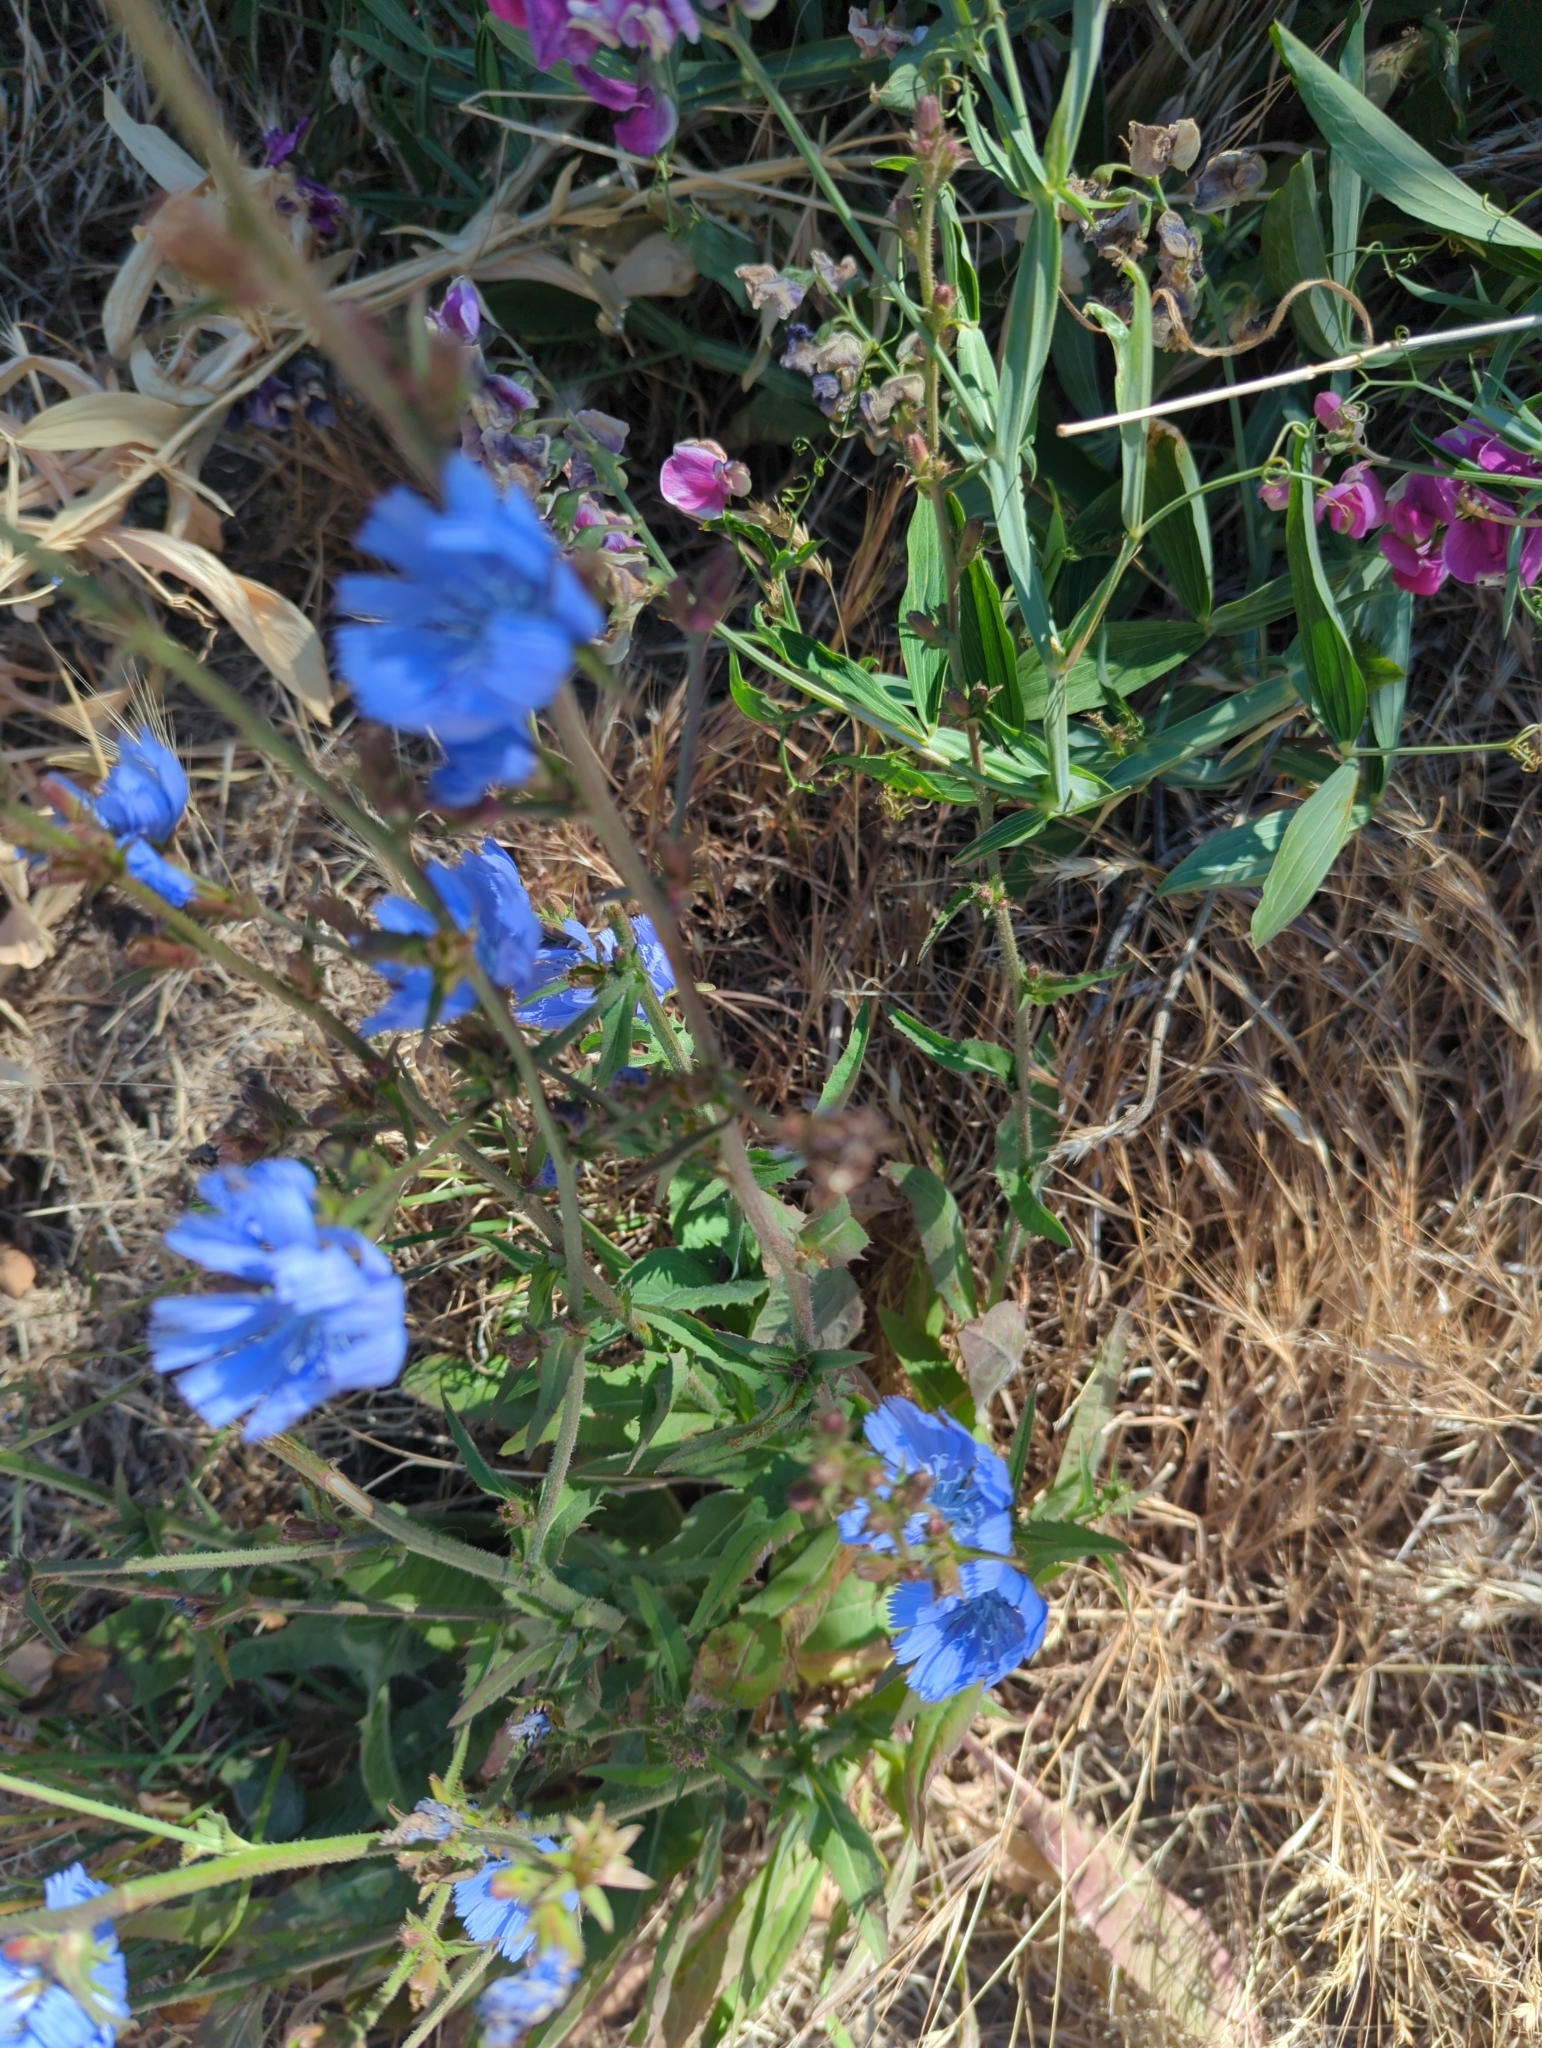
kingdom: Plantae
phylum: Tracheophyta
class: Magnoliopsida
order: Asterales
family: Asteraceae
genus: Cichorium
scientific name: Cichorium intybus
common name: Chicory
